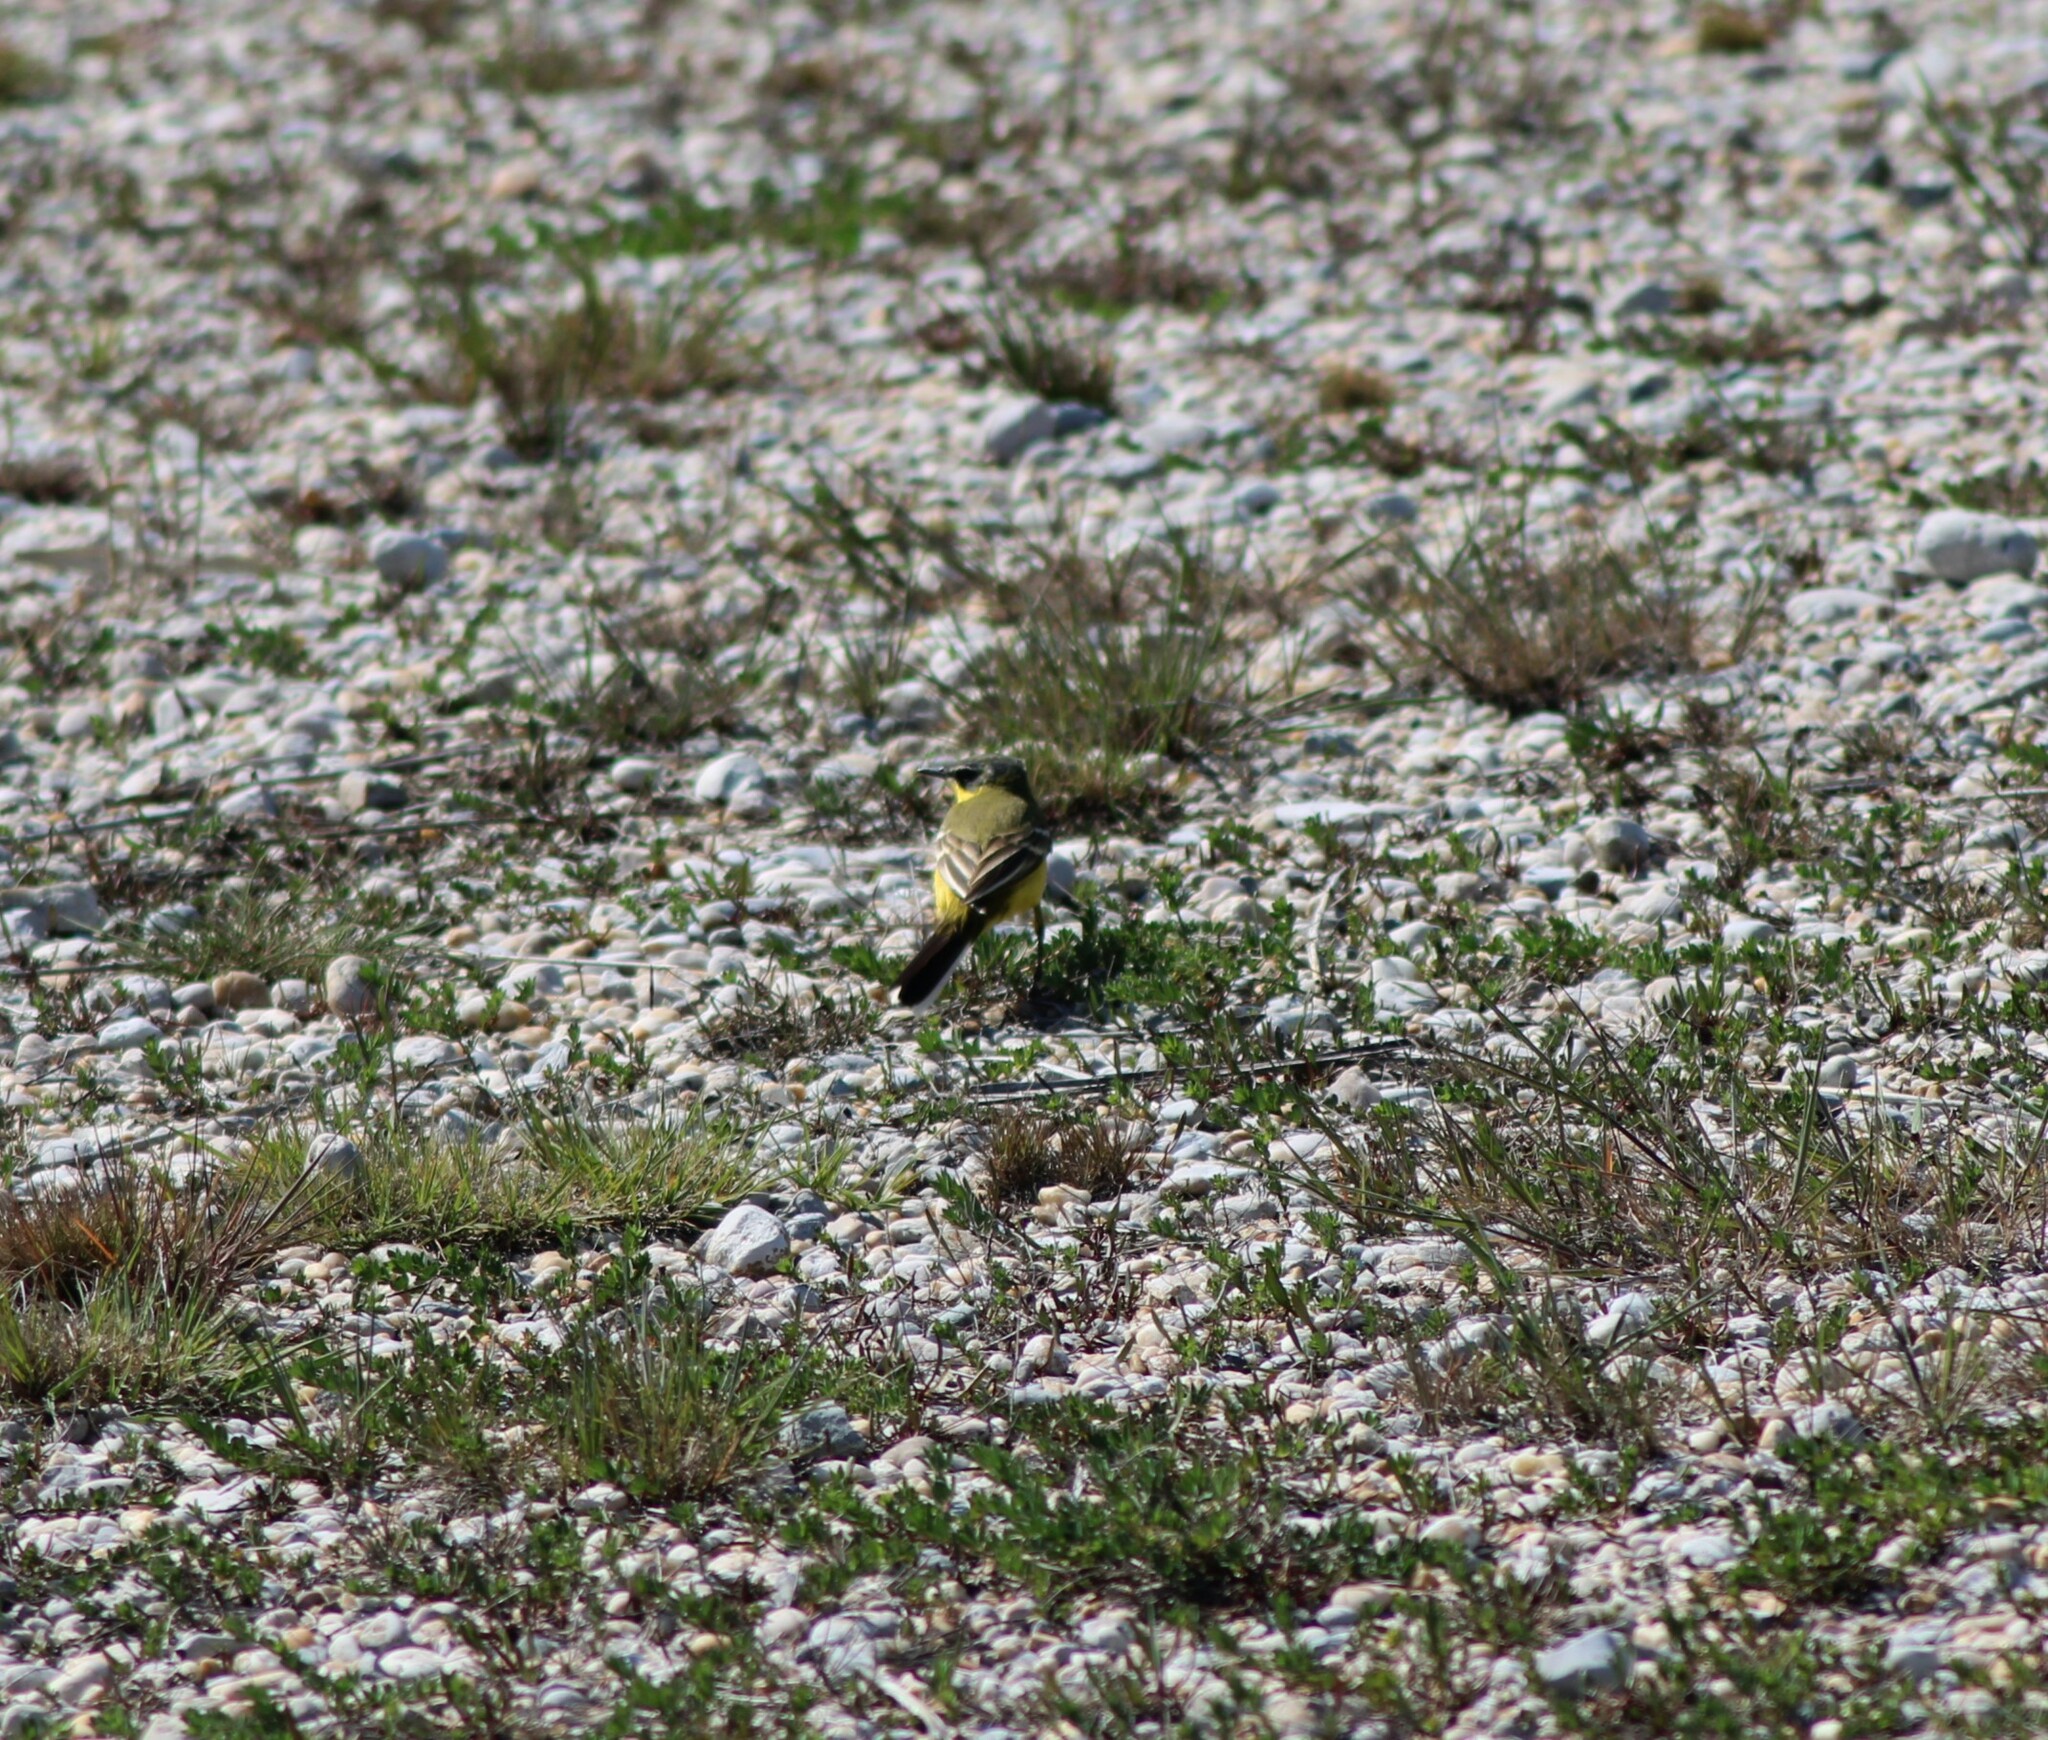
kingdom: Animalia
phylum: Chordata
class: Aves
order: Passeriformes
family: Motacillidae
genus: Motacilla
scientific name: Motacilla flava
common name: Western yellow wagtail
